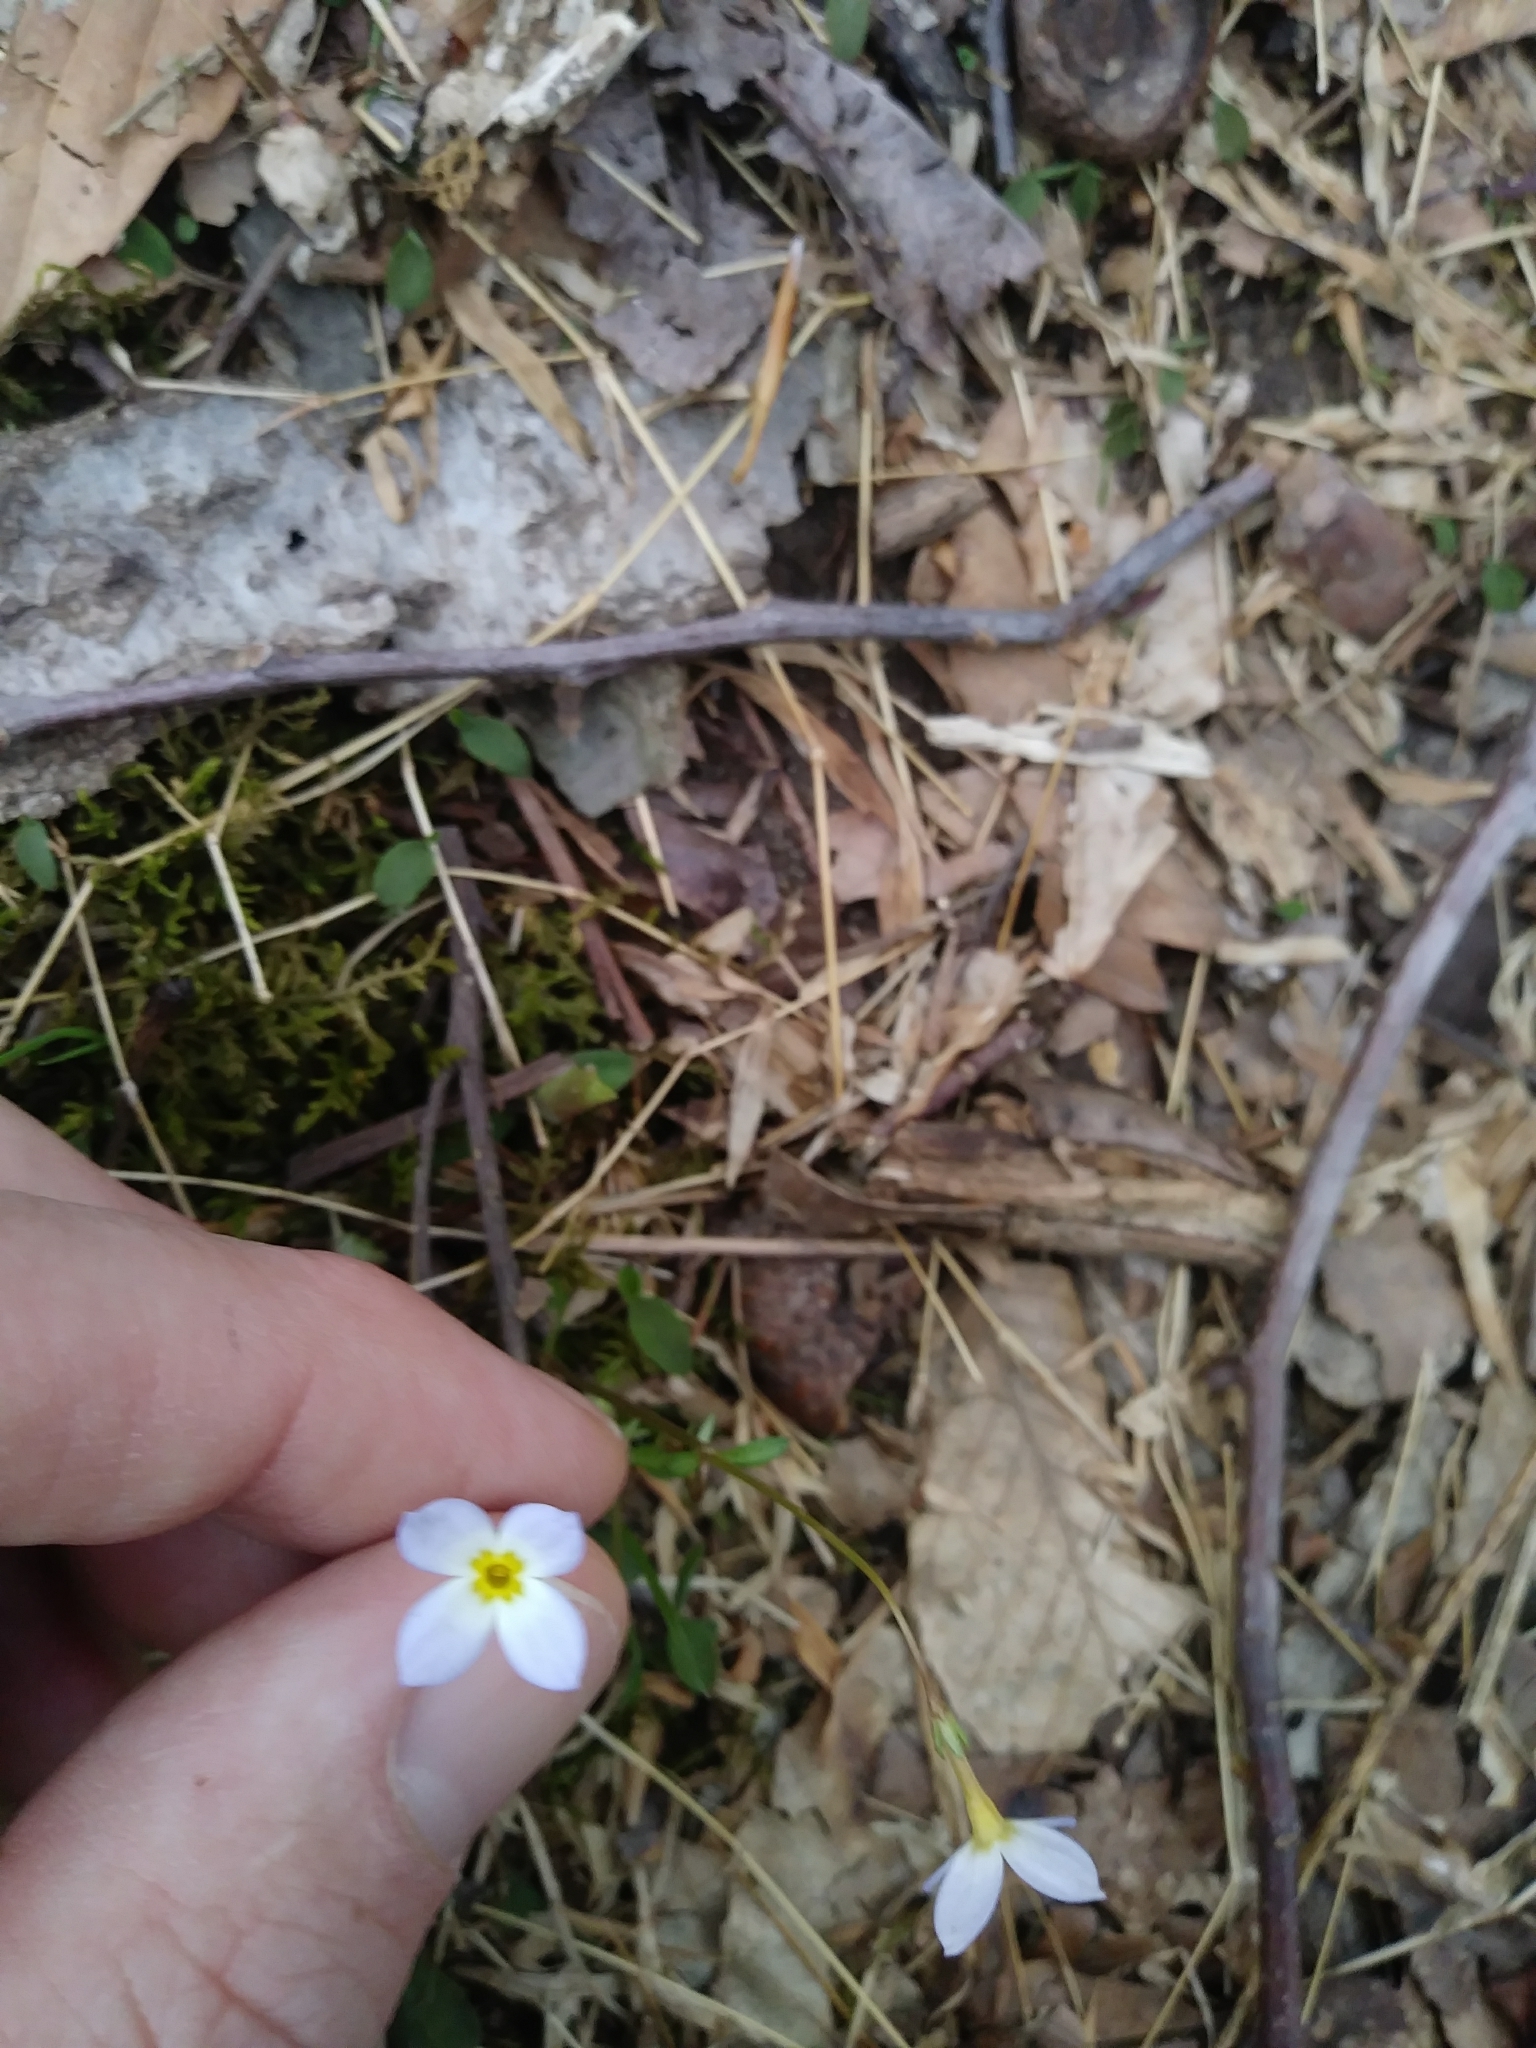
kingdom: Plantae
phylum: Tracheophyta
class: Magnoliopsida
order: Gentianales
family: Rubiaceae
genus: Houstonia
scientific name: Houstonia caerulea
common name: Bluets
